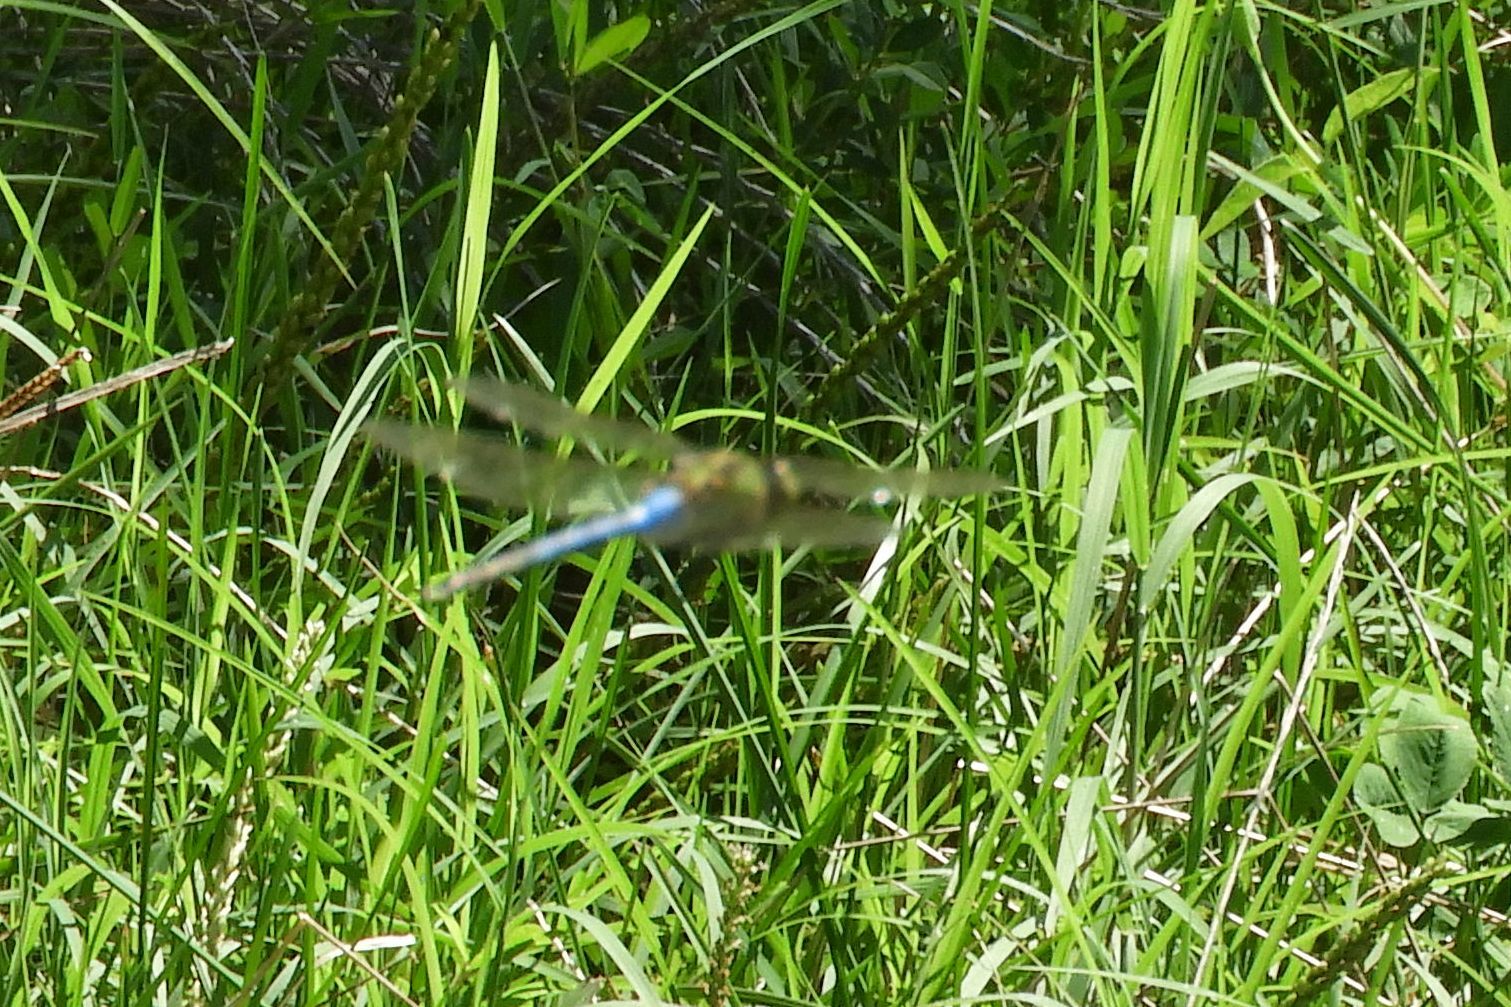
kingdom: Animalia
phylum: Arthropoda
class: Insecta
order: Odonata
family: Aeshnidae
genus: Anax
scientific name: Anax junius
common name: Common green darner
